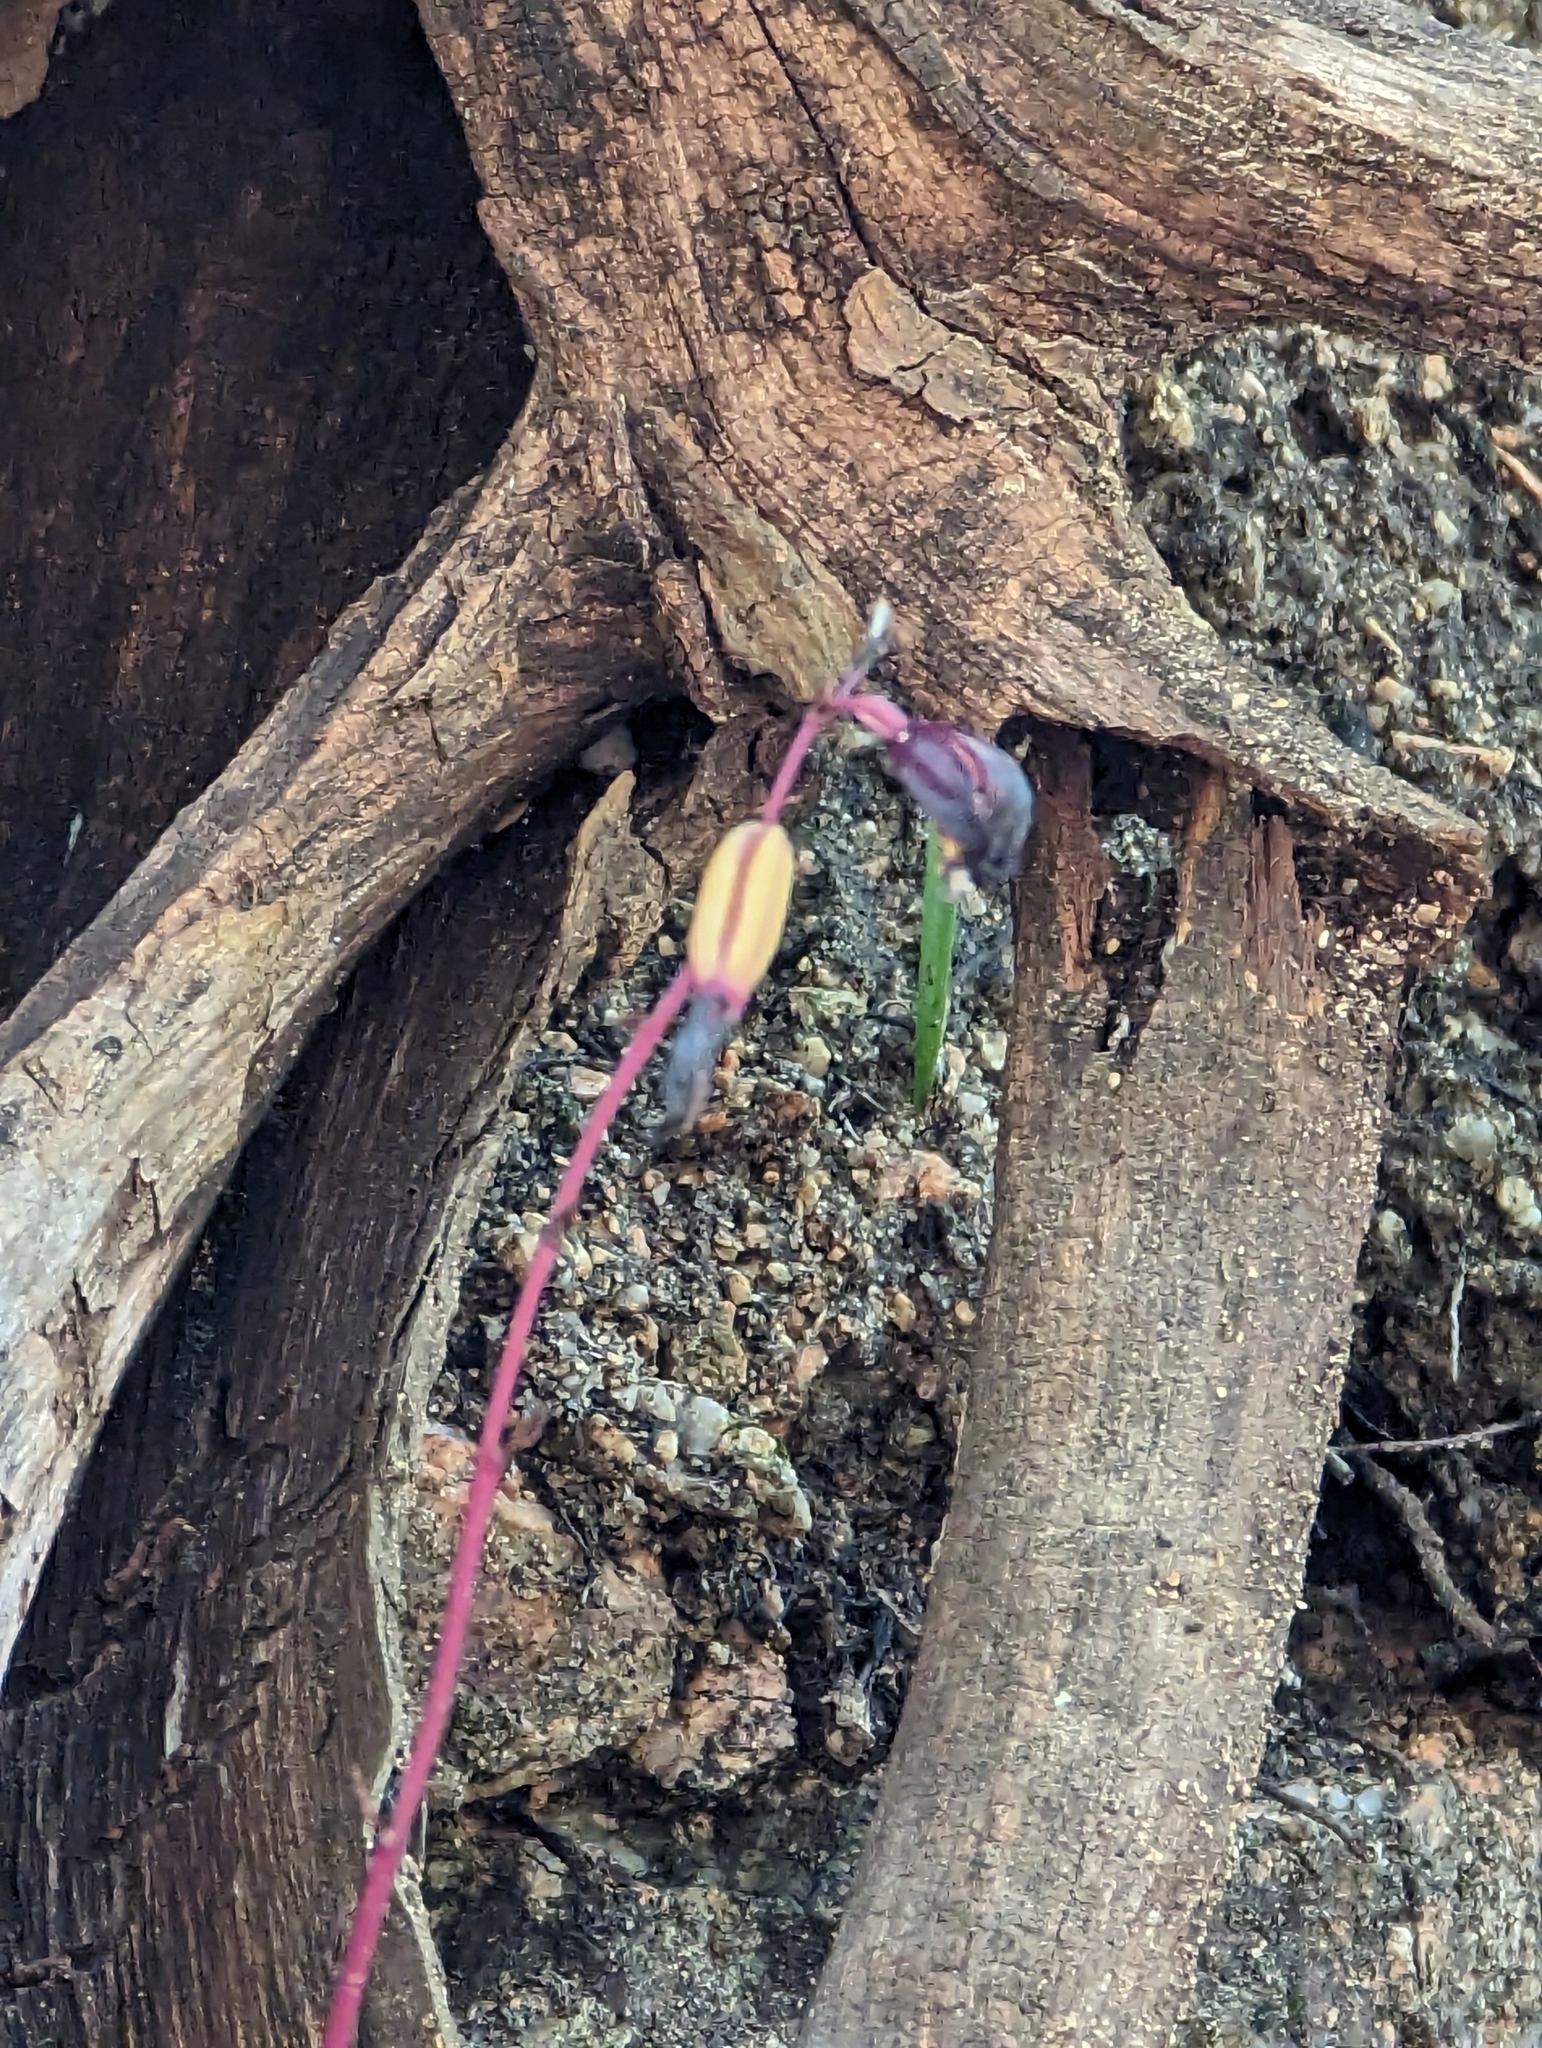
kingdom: Plantae
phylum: Tracheophyta
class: Liliopsida
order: Asparagales
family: Orchidaceae
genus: Bletia
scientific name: Bletia warnockii
